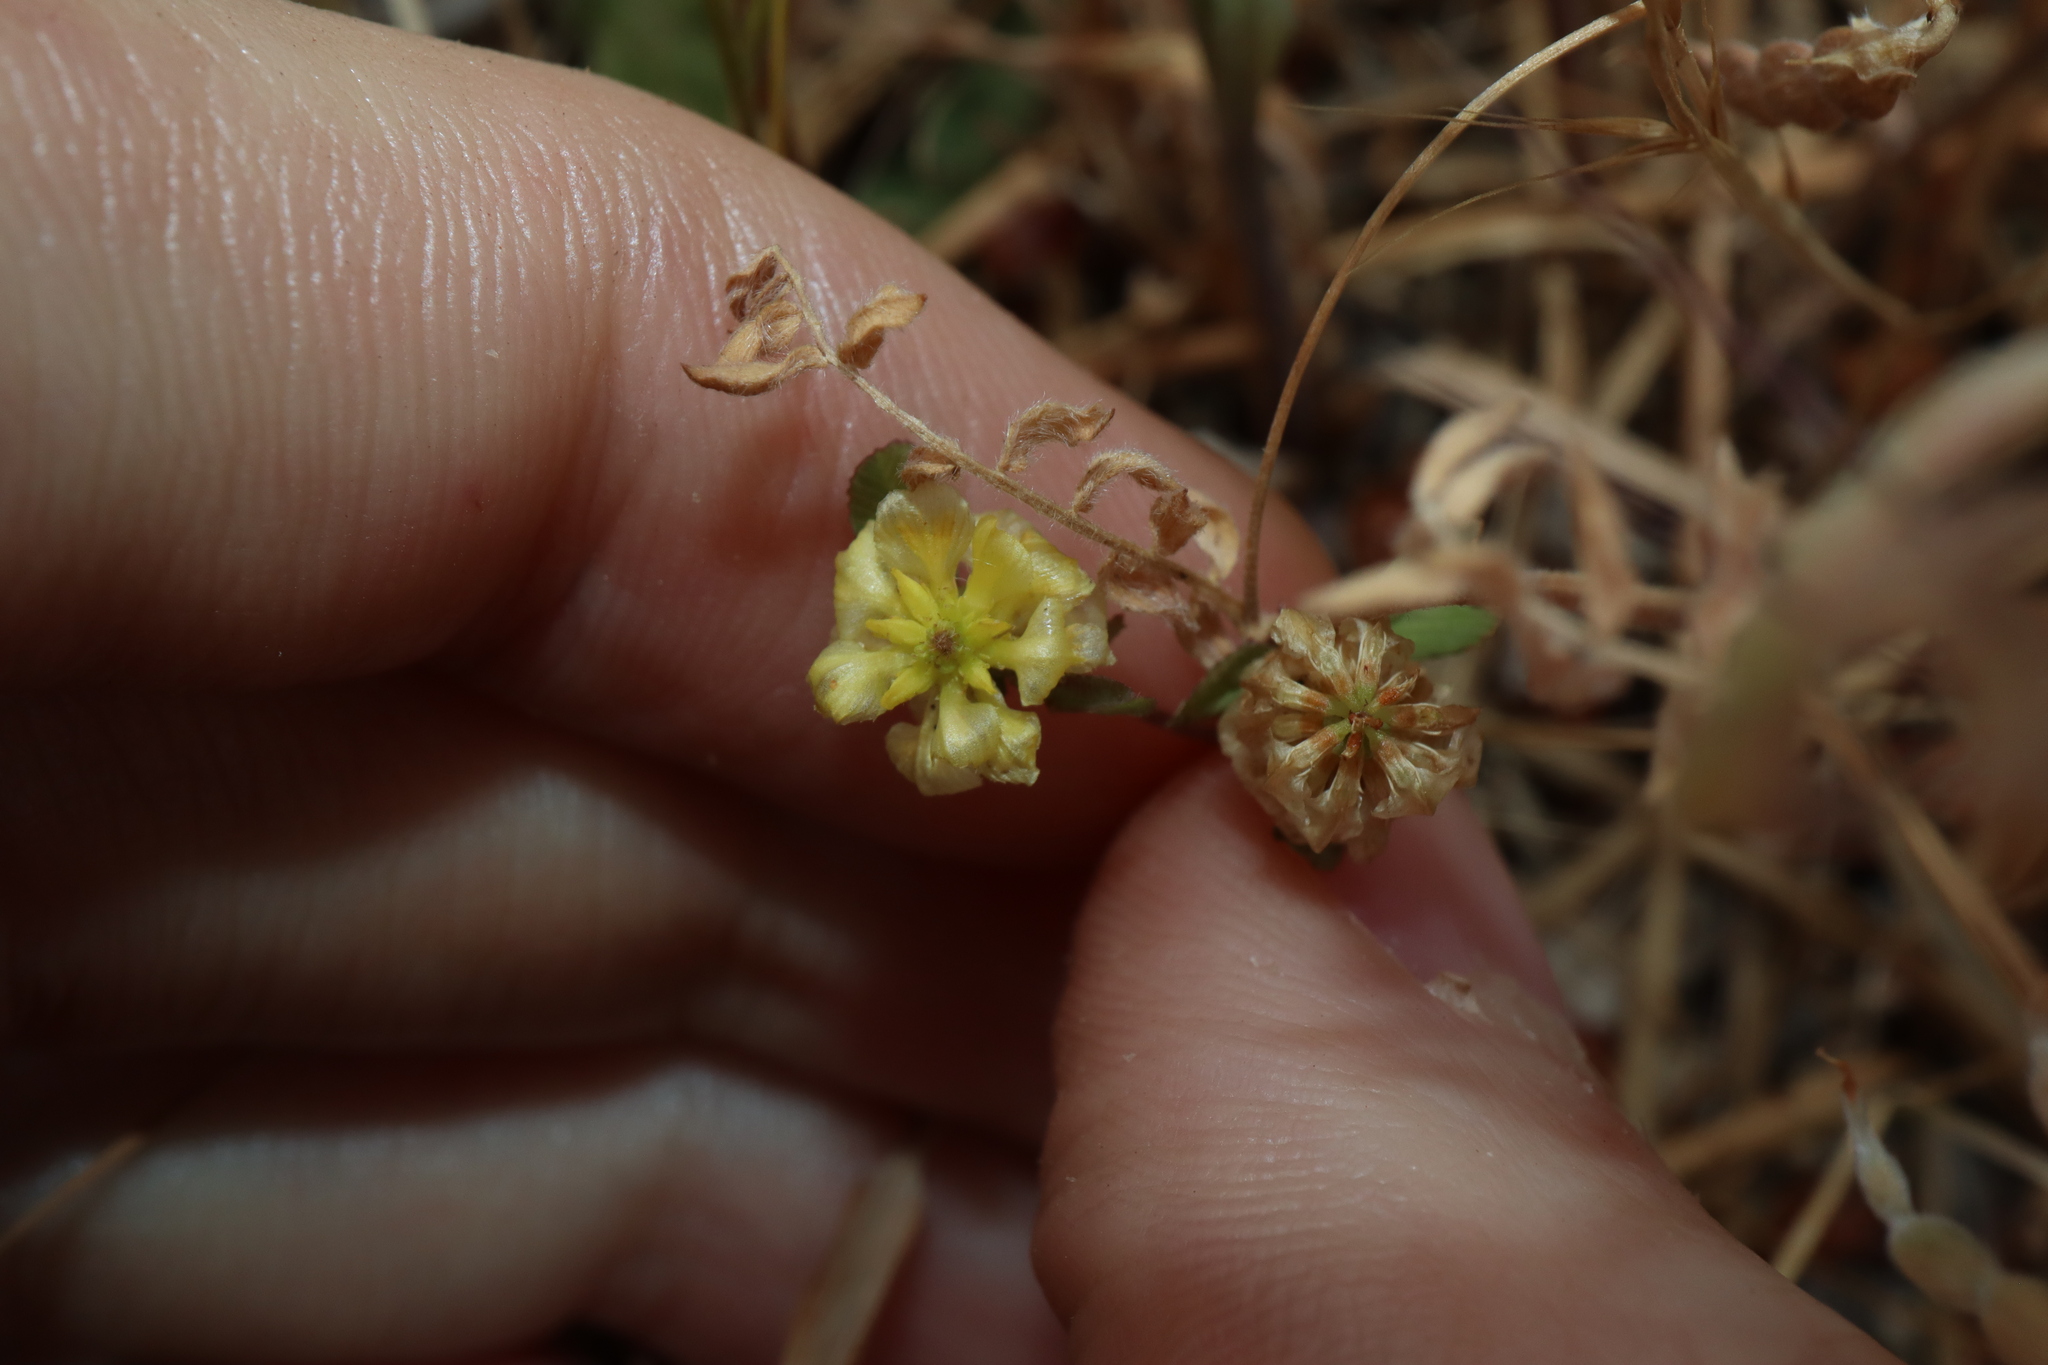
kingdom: Plantae
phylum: Tracheophyta
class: Magnoliopsida
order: Fabales
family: Fabaceae
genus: Trifolium
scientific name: Trifolium campestre
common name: Field clover
